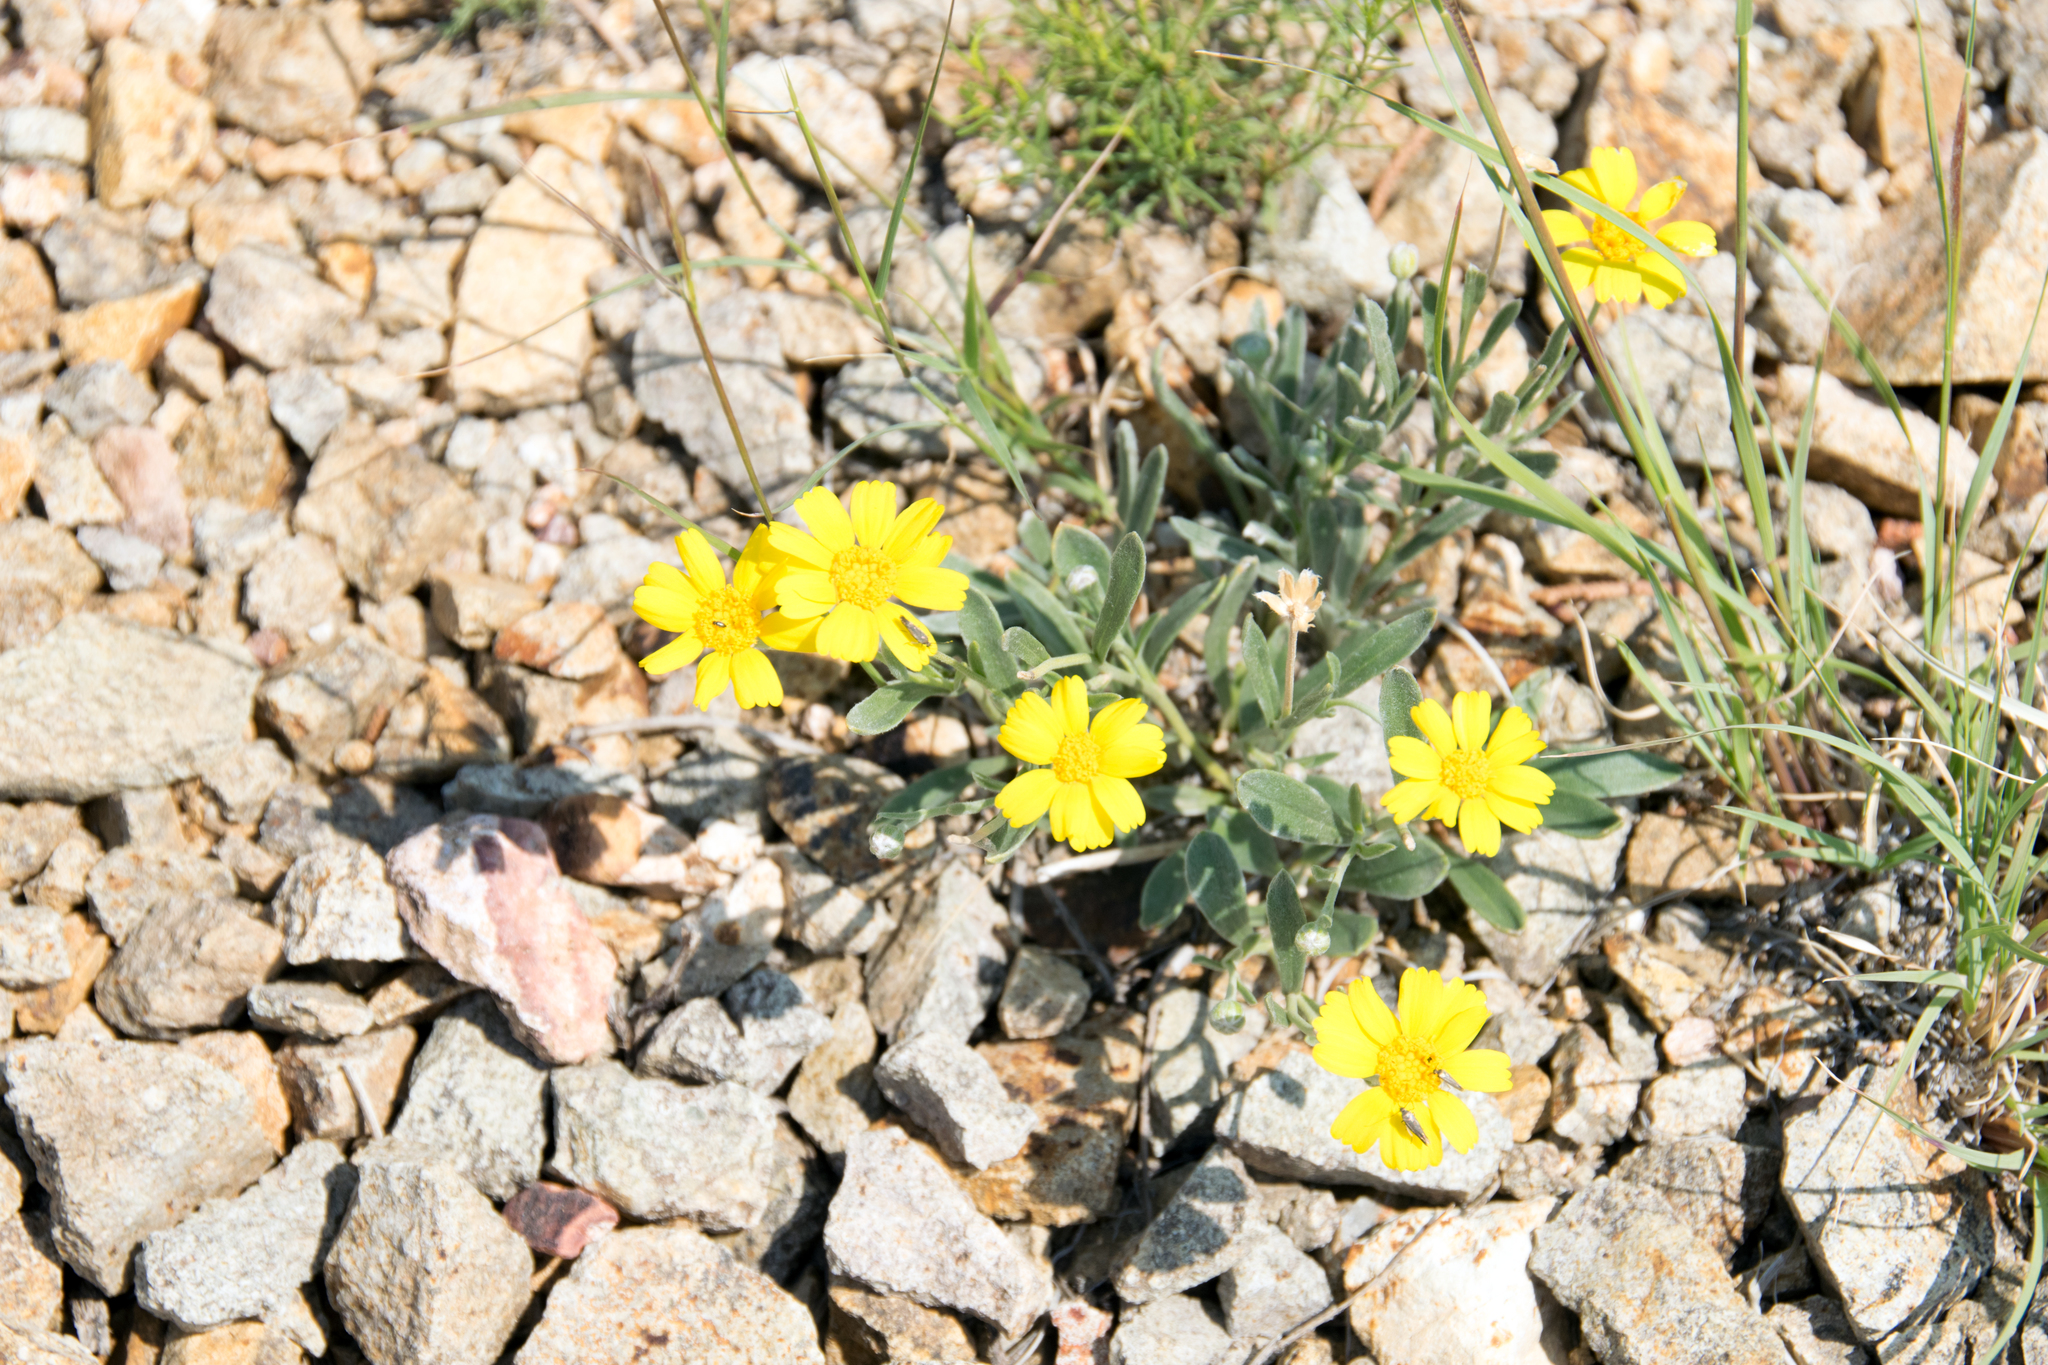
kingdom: Plantae
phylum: Tracheophyta
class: Magnoliopsida
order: Asterales
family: Asteraceae
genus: Tetraneuris
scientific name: Tetraneuris argentea
